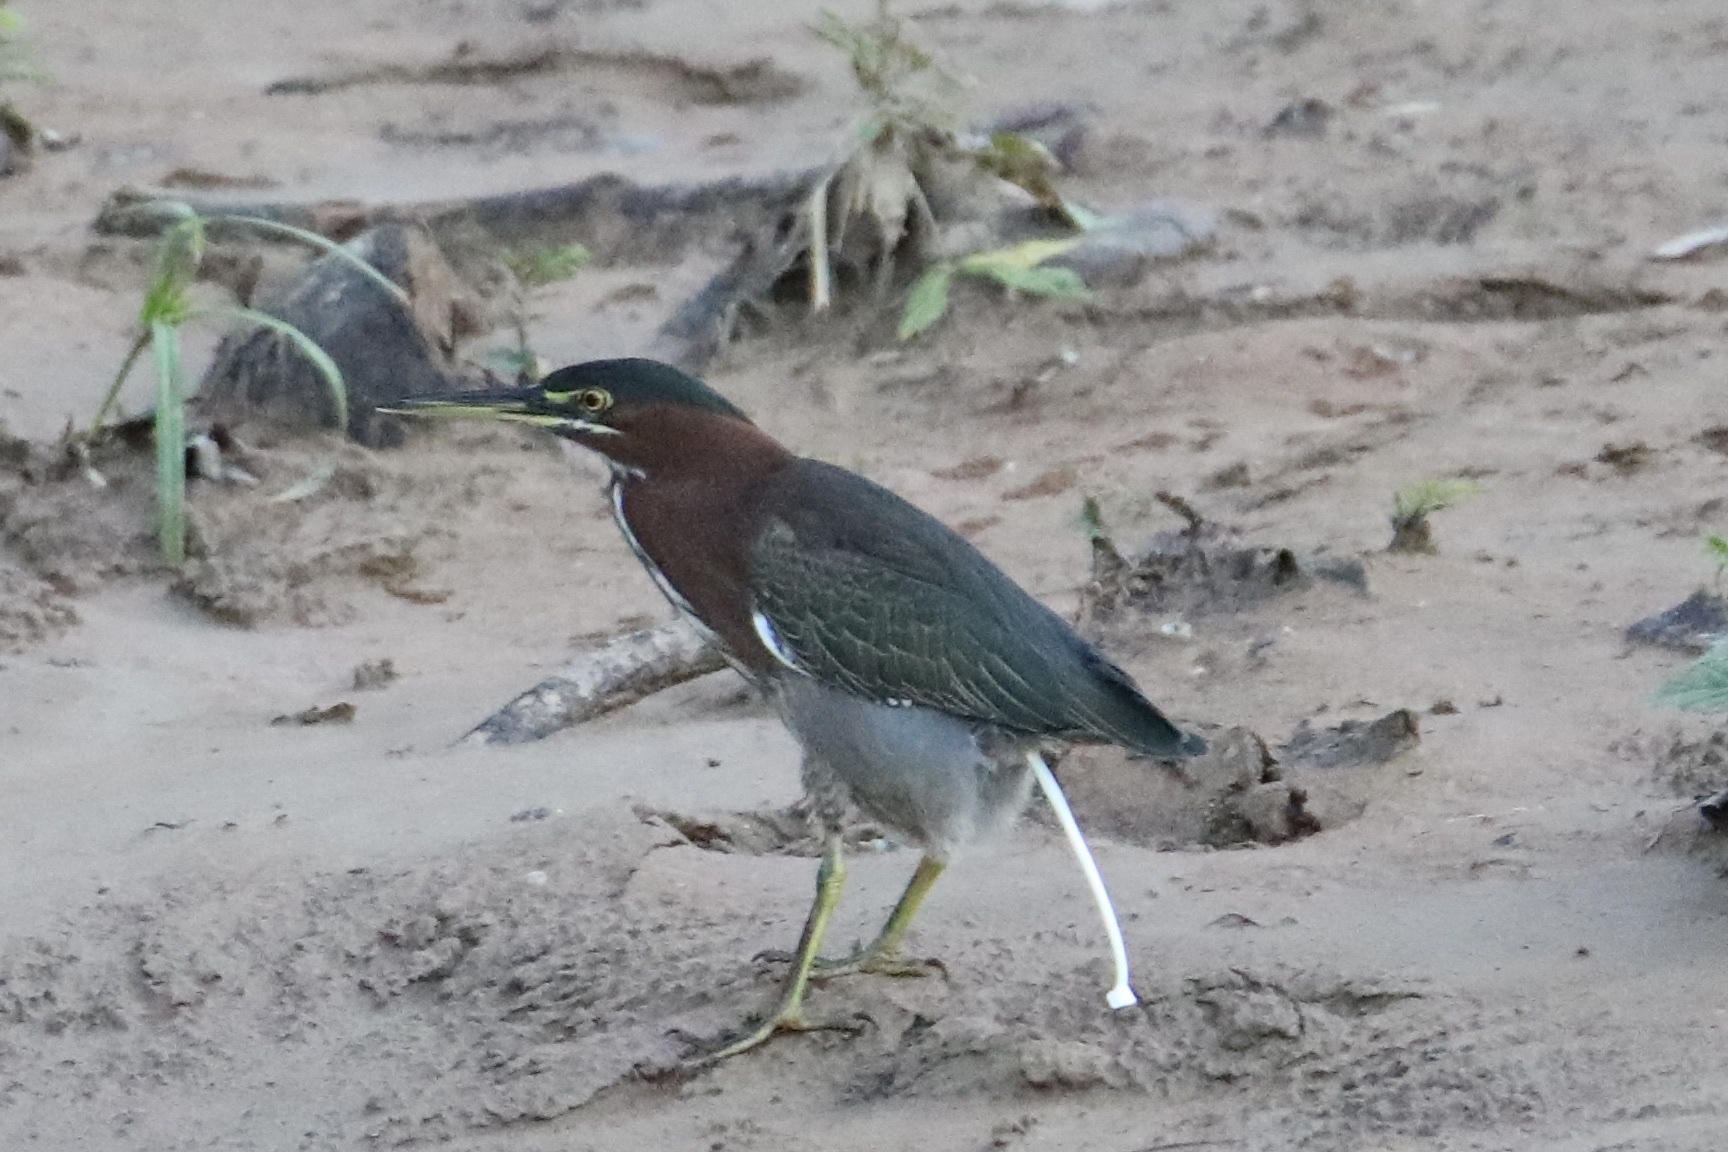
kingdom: Animalia
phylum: Chordata
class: Aves
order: Pelecaniformes
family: Ardeidae
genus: Butorides
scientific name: Butorides virescens
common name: Green heron
